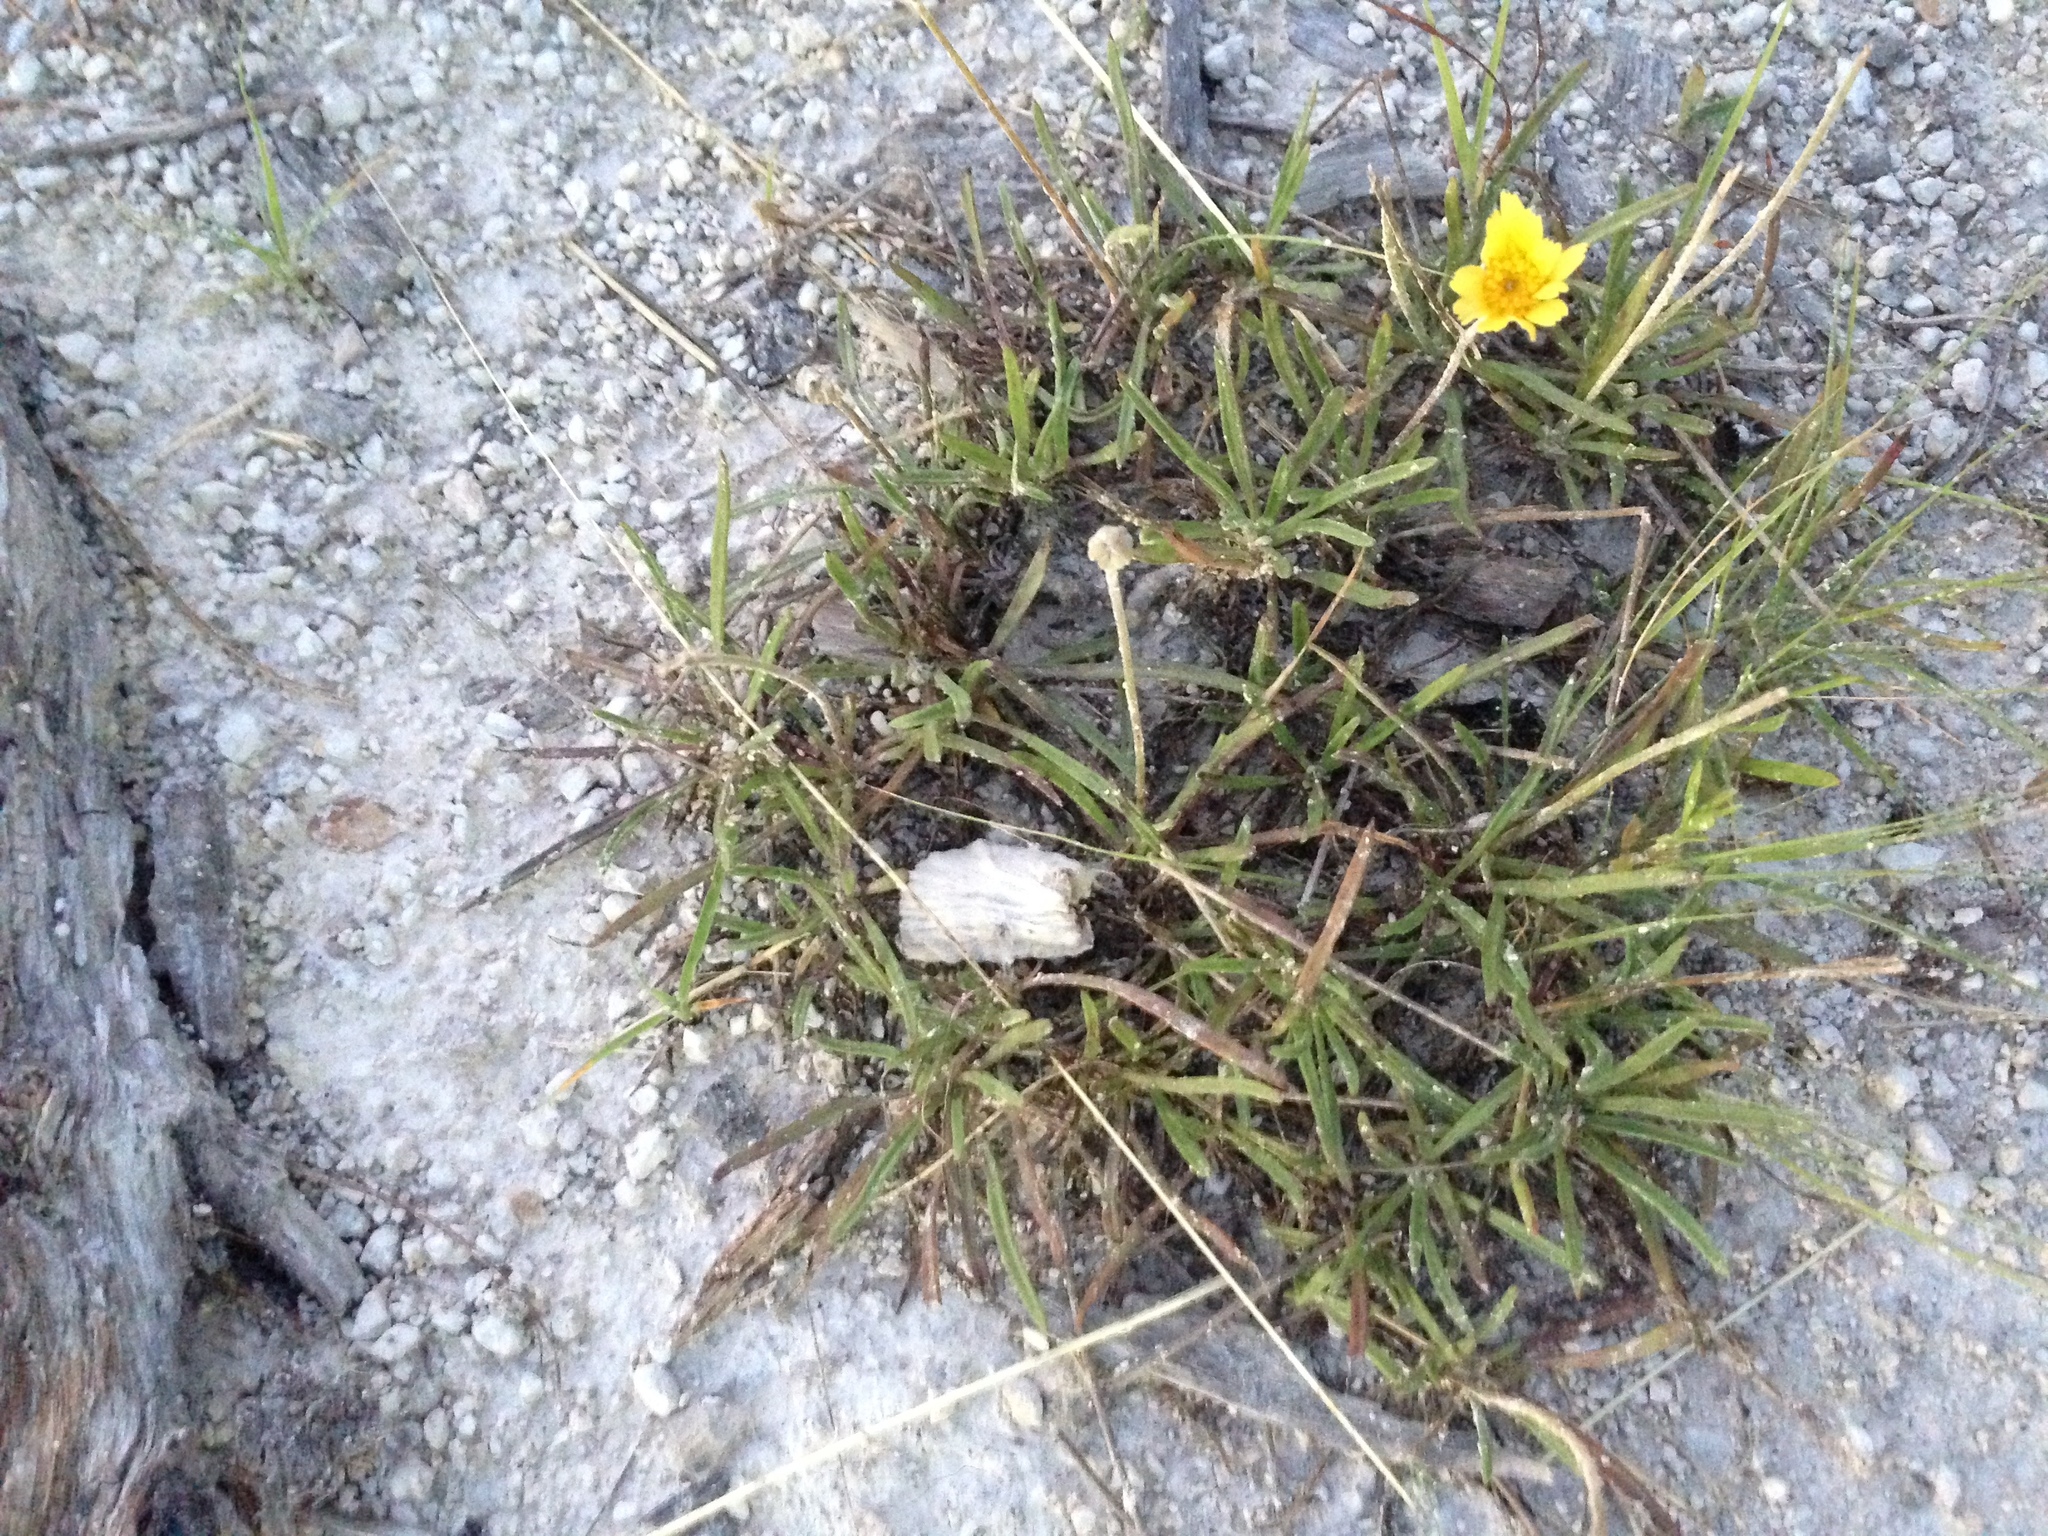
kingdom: Plantae
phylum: Tracheophyta
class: Magnoliopsida
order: Asterales
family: Asteraceae
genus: Tetraneuris
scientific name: Tetraneuris scaposa
